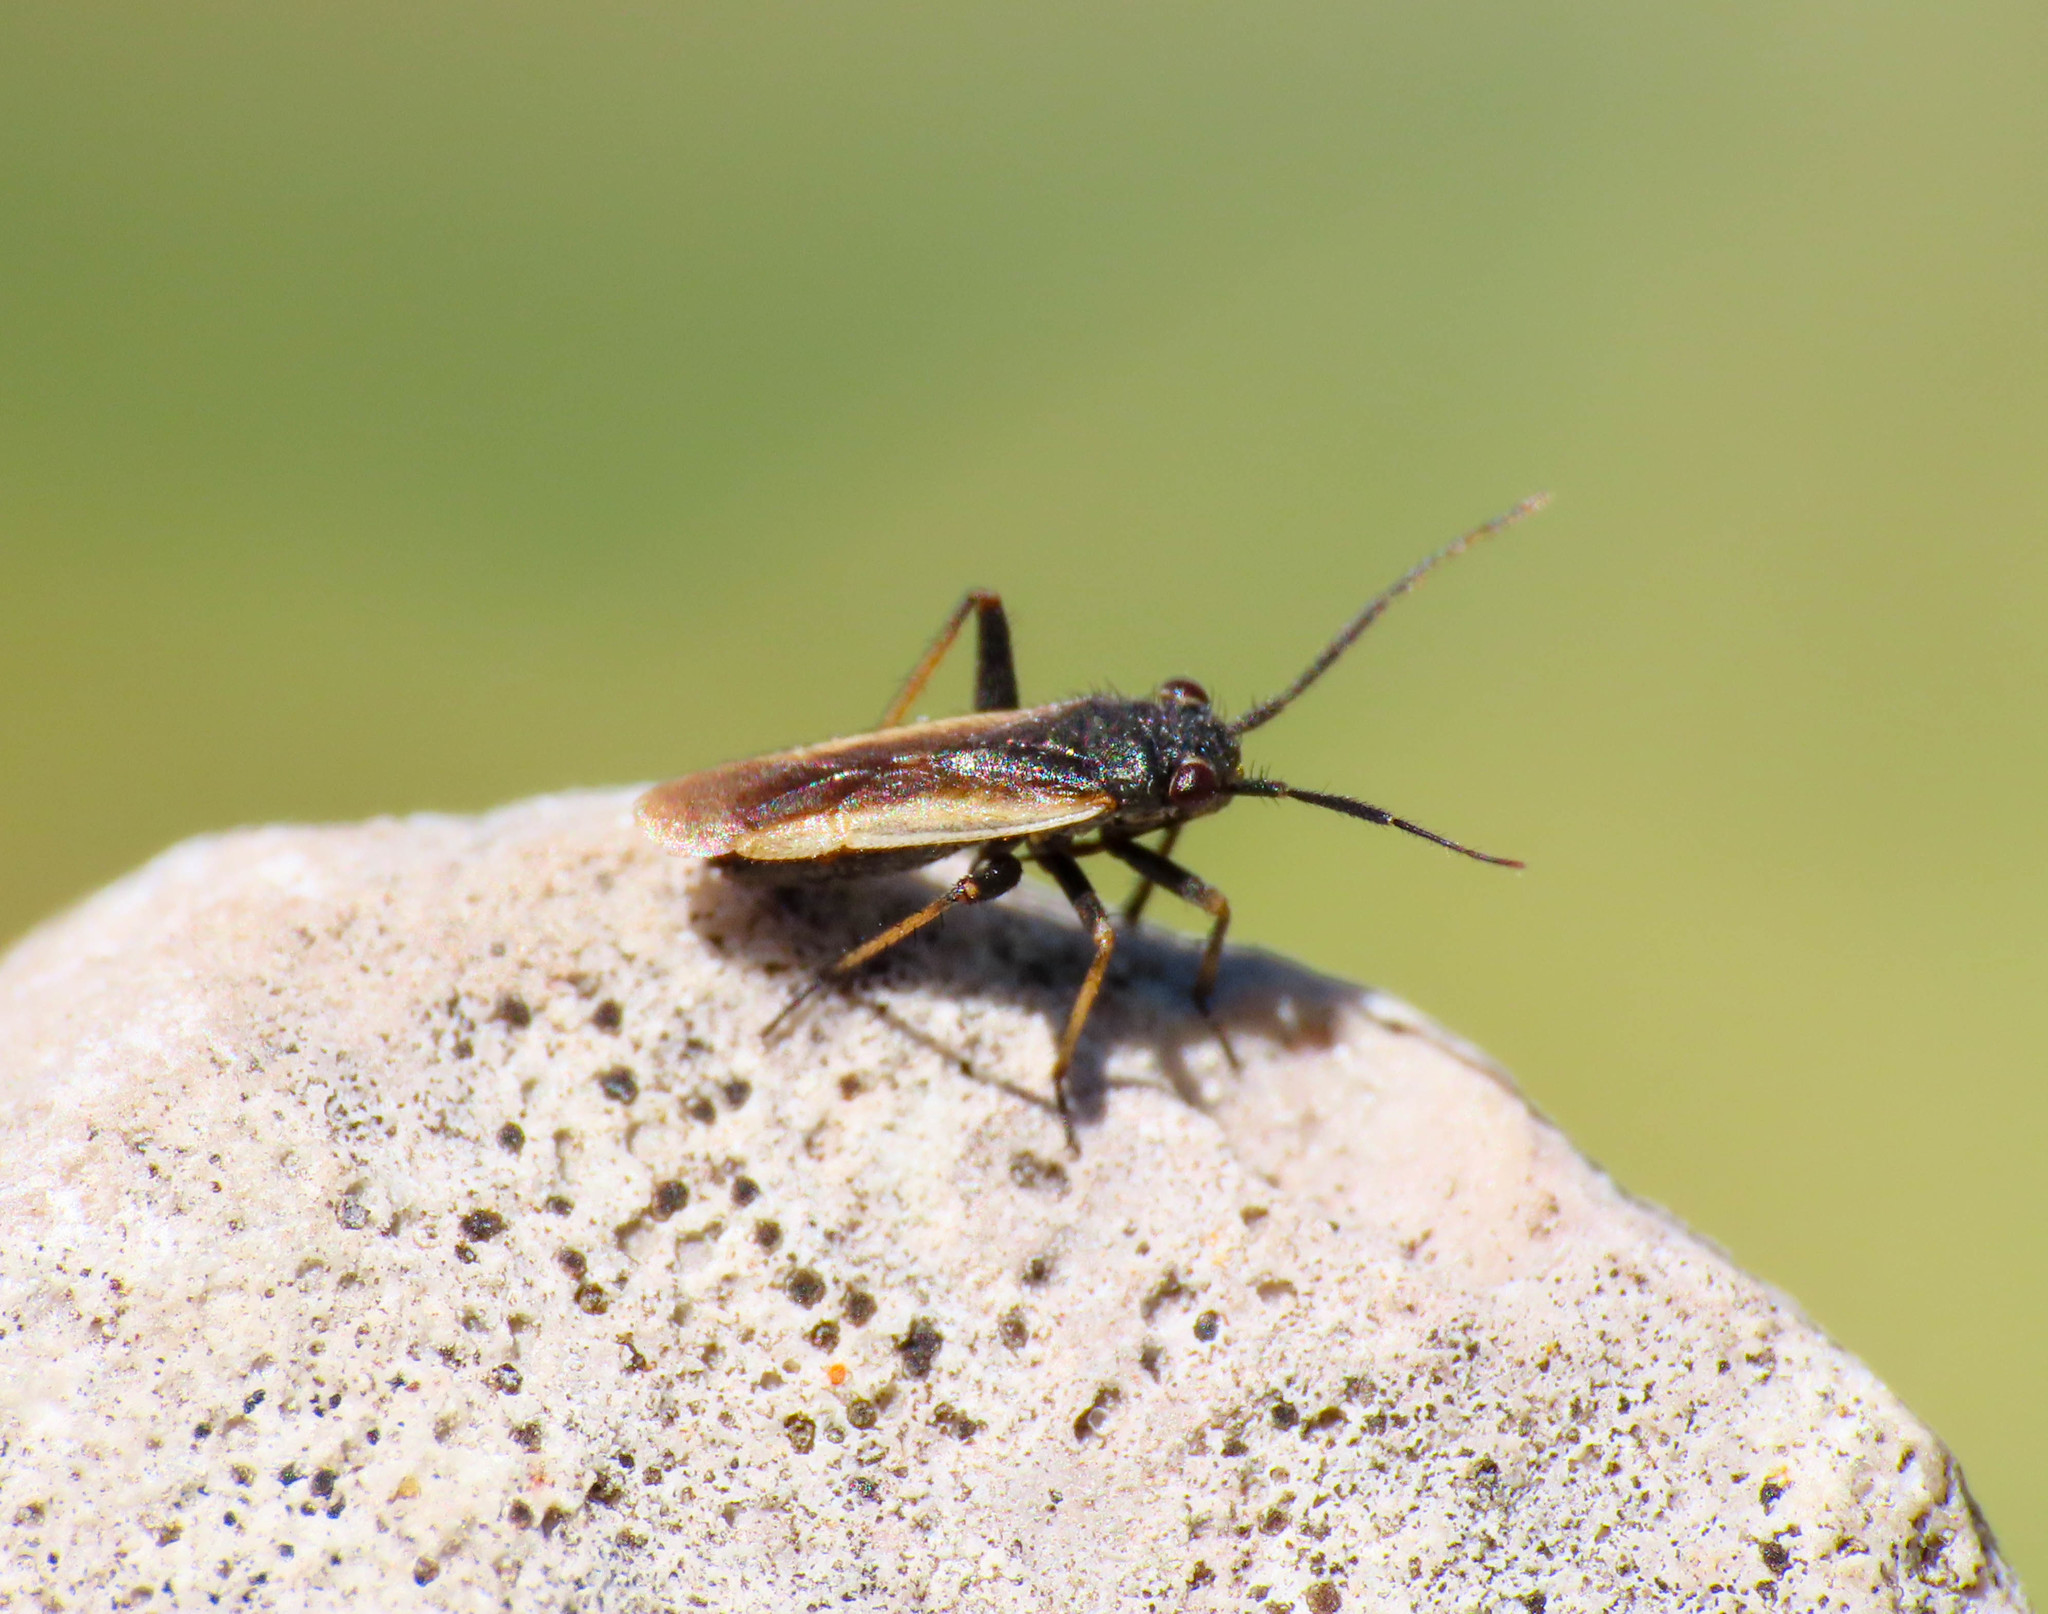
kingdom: Animalia
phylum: Arthropoda
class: Insecta
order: Hemiptera
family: Miridae
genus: Schoenocoris
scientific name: Schoenocoris flavomarginatus
